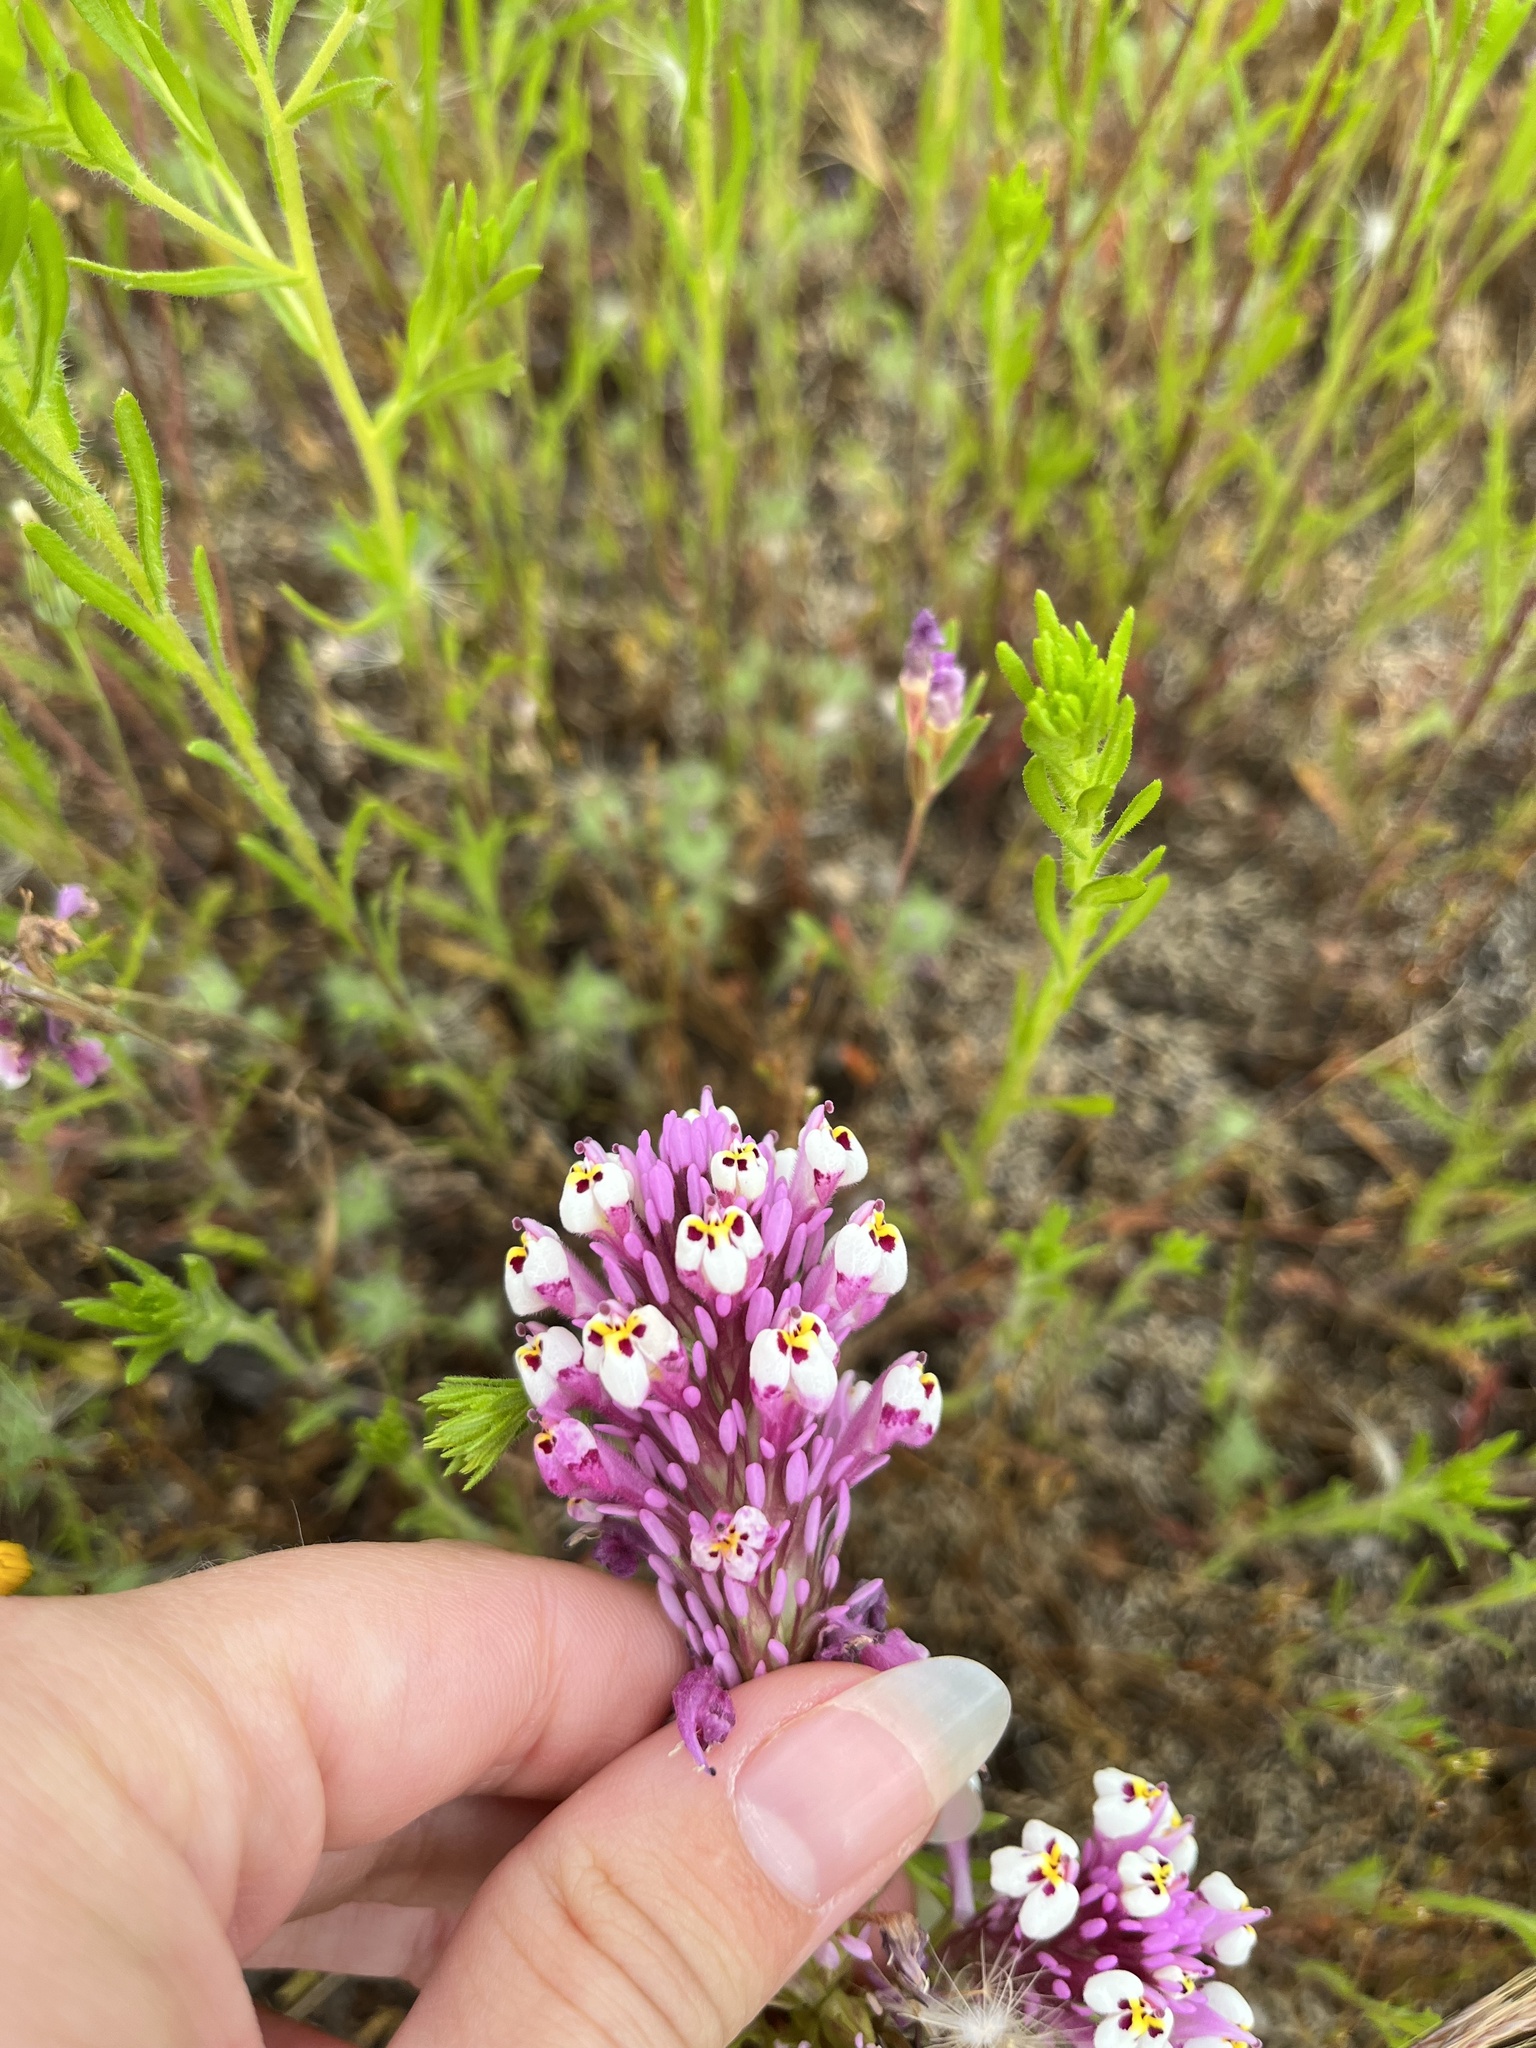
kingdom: Plantae
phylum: Tracheophyta
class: Magnoliopsida
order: Lamiales
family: Orobanchaceae
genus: Castilleja
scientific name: Castilleja densiflora
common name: Dense-flower indian paintbrush
